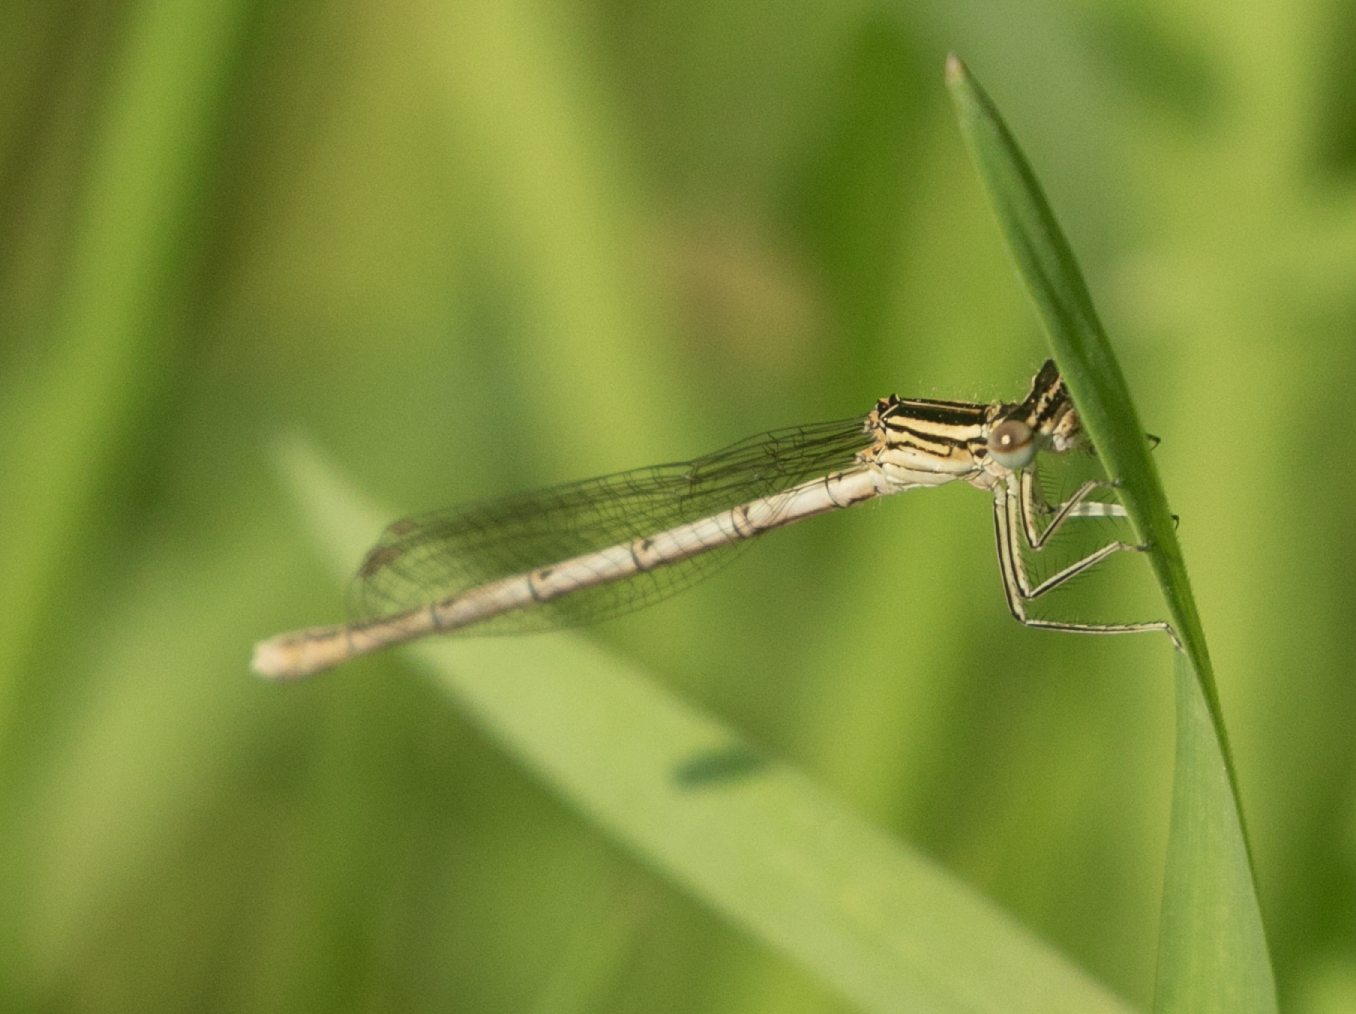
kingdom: Animalia
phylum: Arthropoda
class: Insecta
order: Odonata
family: Platycnemididae
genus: Platycnemis
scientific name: Platycnemis pennipes
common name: White-legged damselfly
